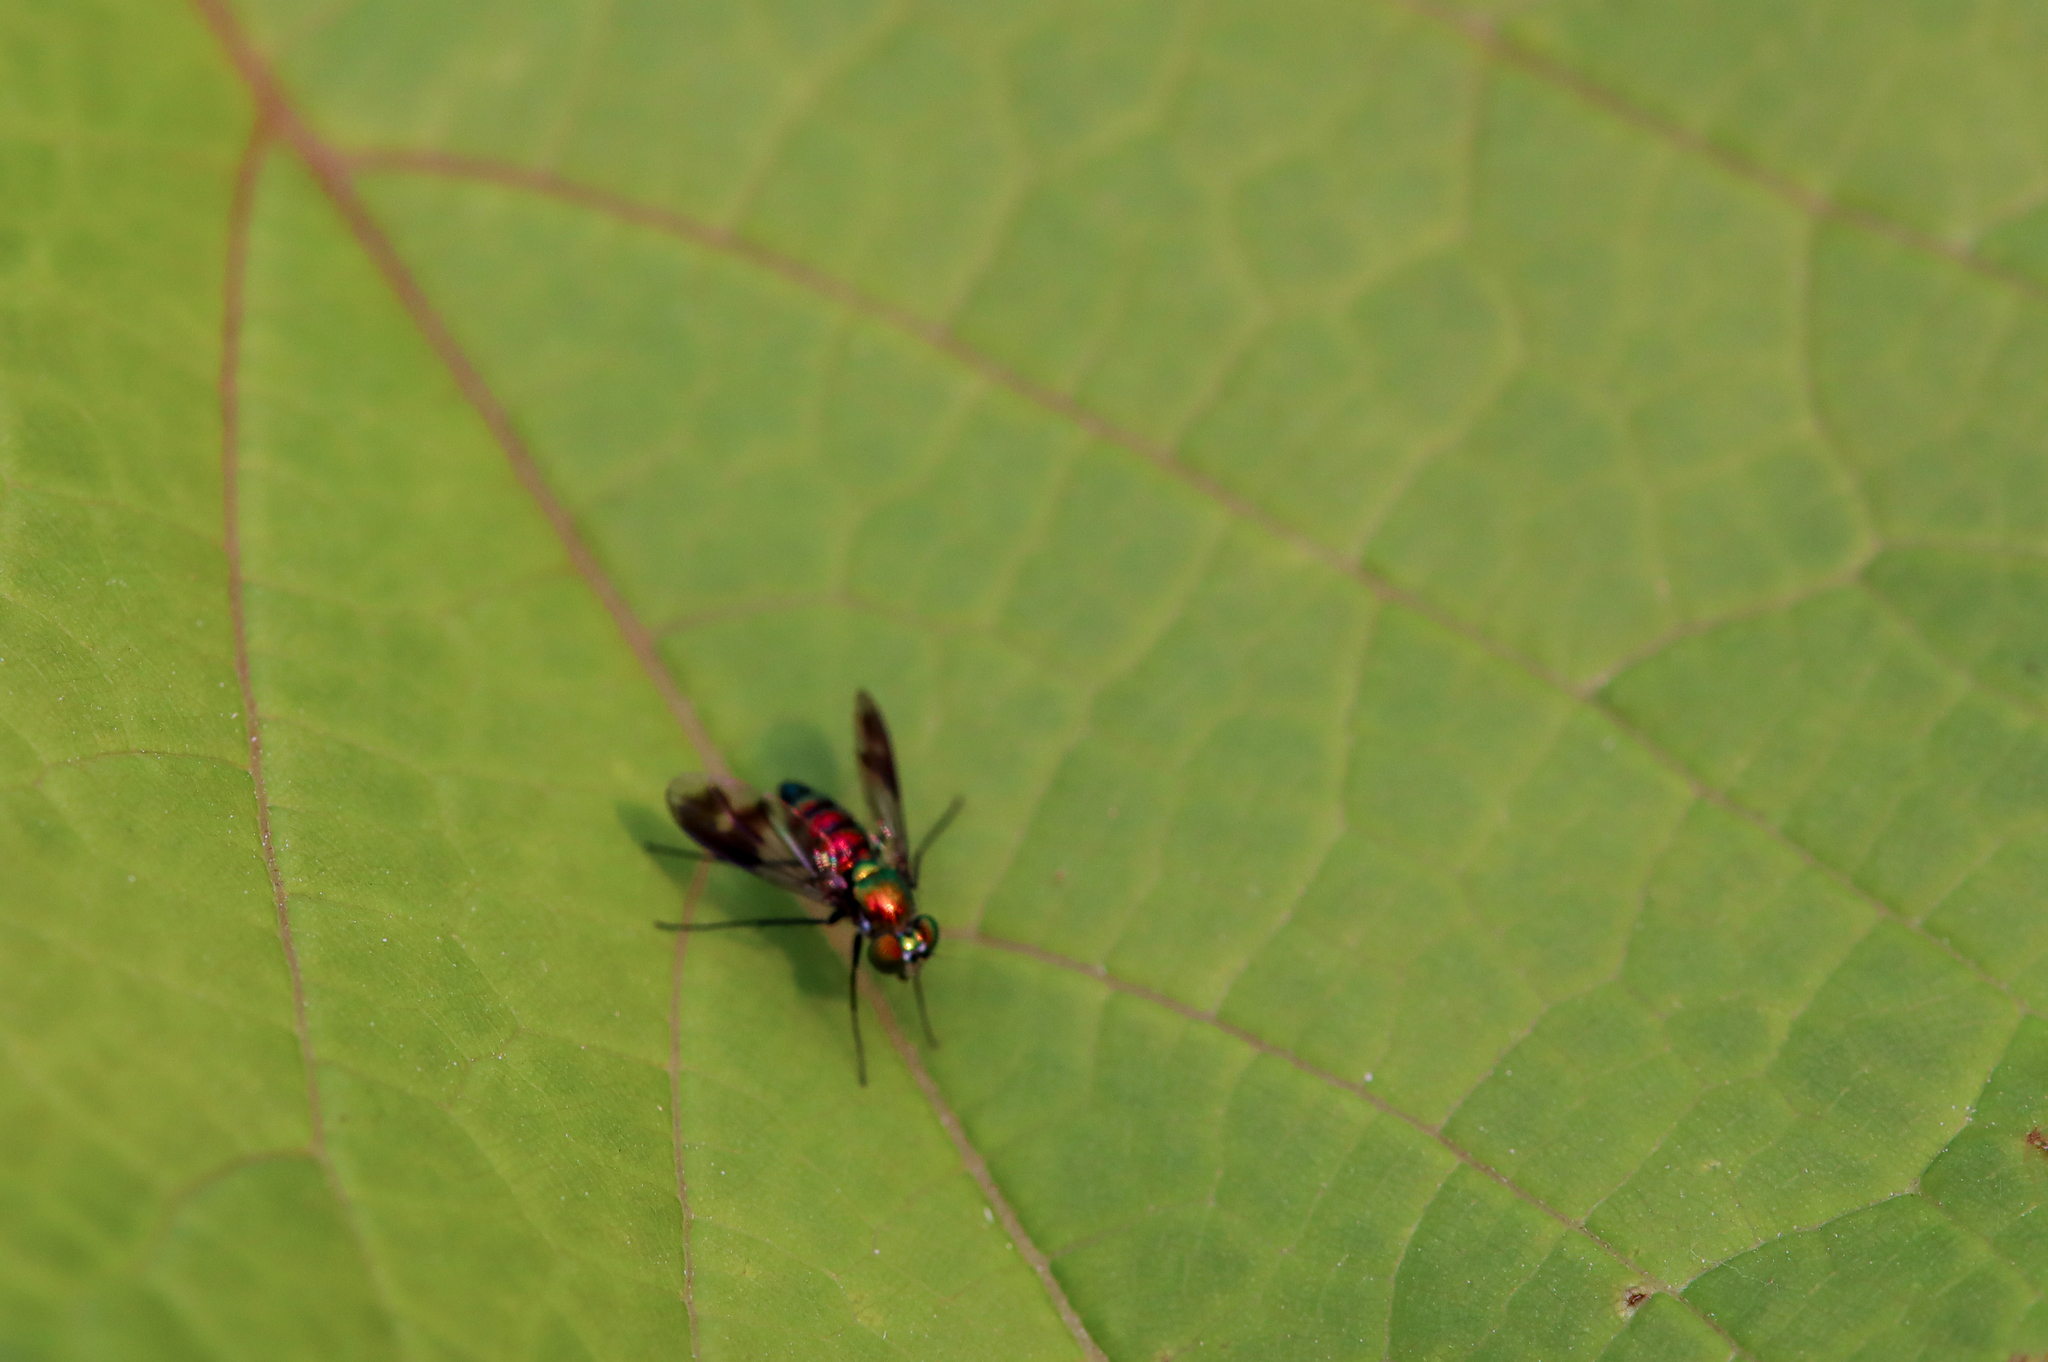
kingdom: Animalia
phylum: Arthropoda
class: Insecta
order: Diptera
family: Dolichopodidae
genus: Condylostylus
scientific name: Condylostylus patibulatus
